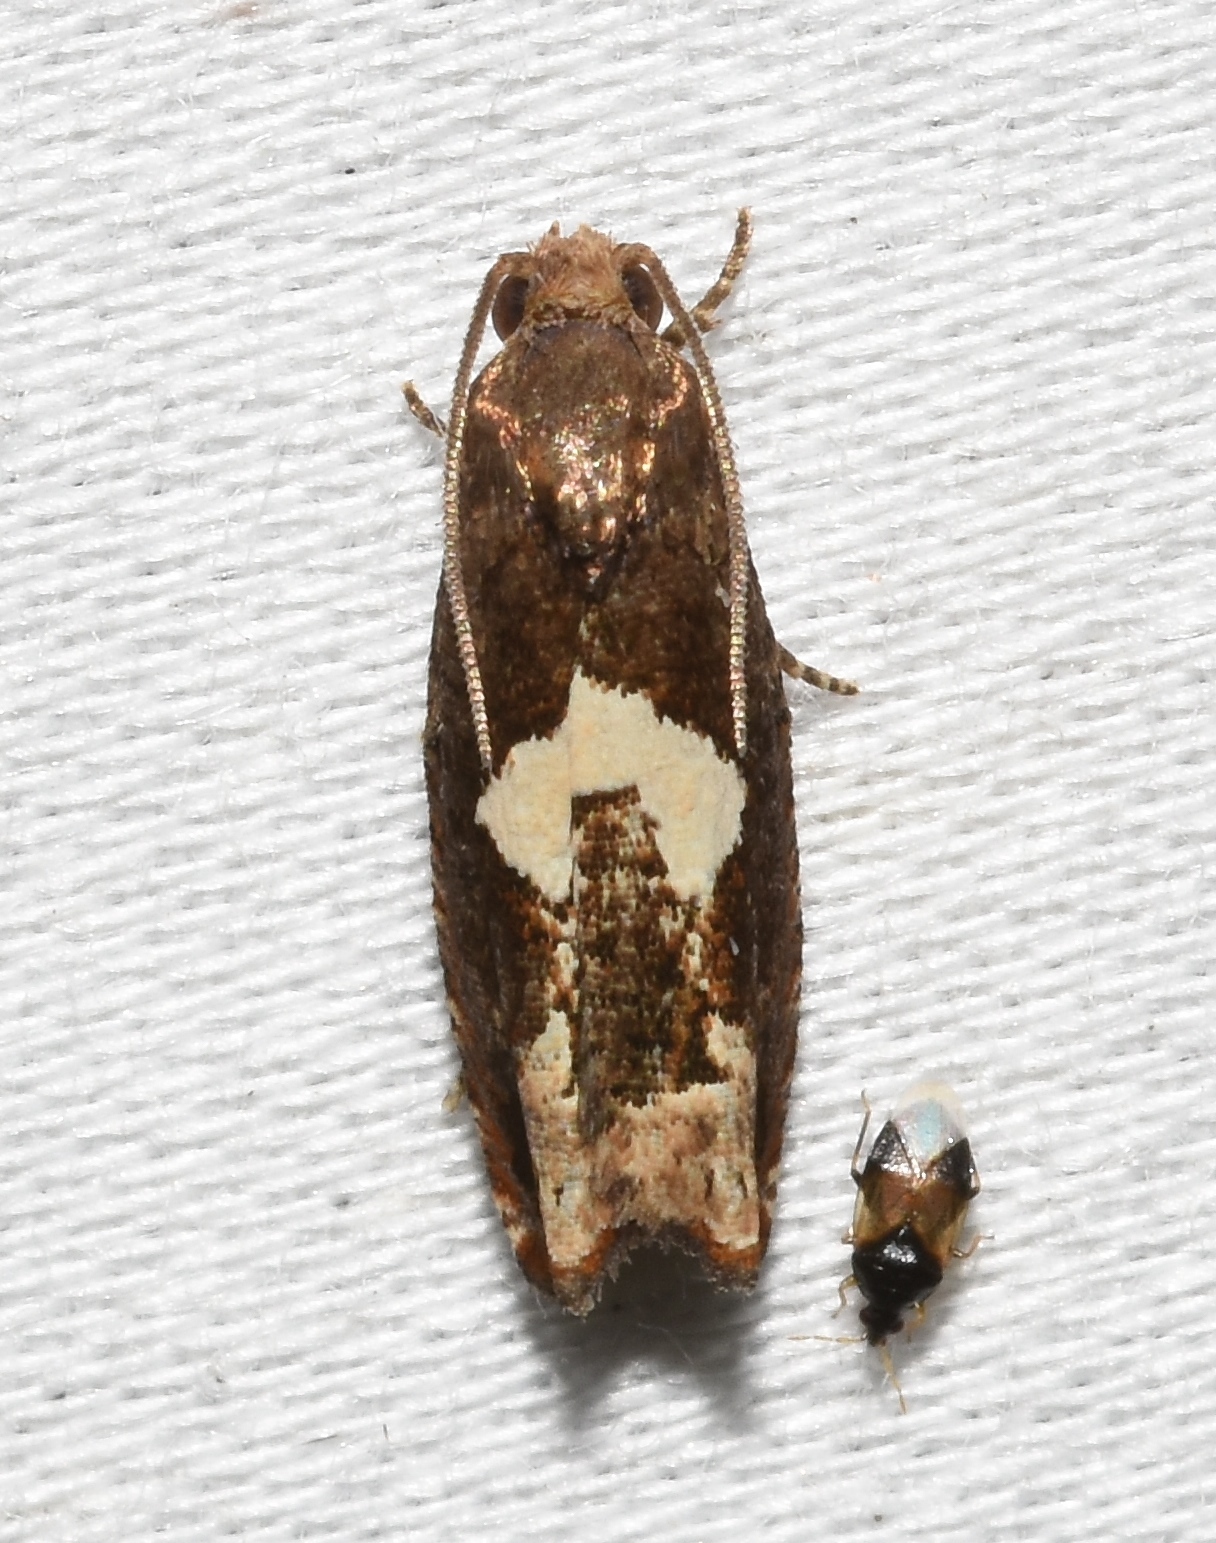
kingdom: Animalia
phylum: Arthropoda
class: Insecta
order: Lepidoptera
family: Tortricidae
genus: Epiblema
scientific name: Epiblema otiosana
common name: Bidens borer moth
